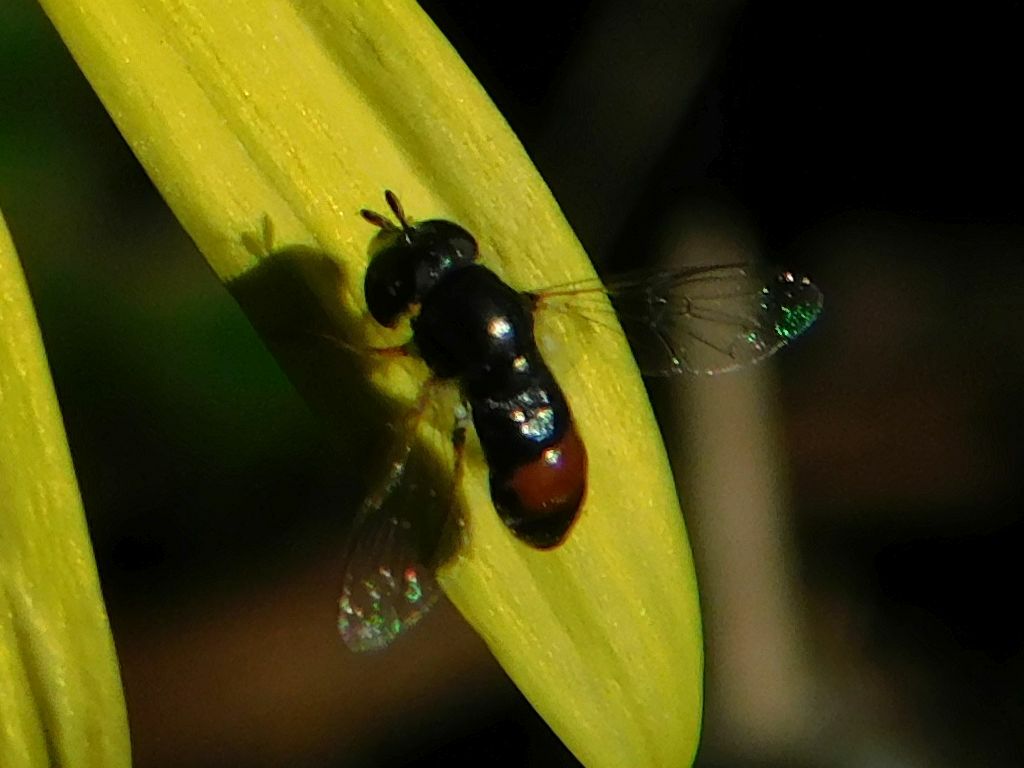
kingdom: Animalia
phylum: Arthropoda
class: Insecta
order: Diptera
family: Syrphidae
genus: Paragus
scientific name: Paragus haemorrhous
